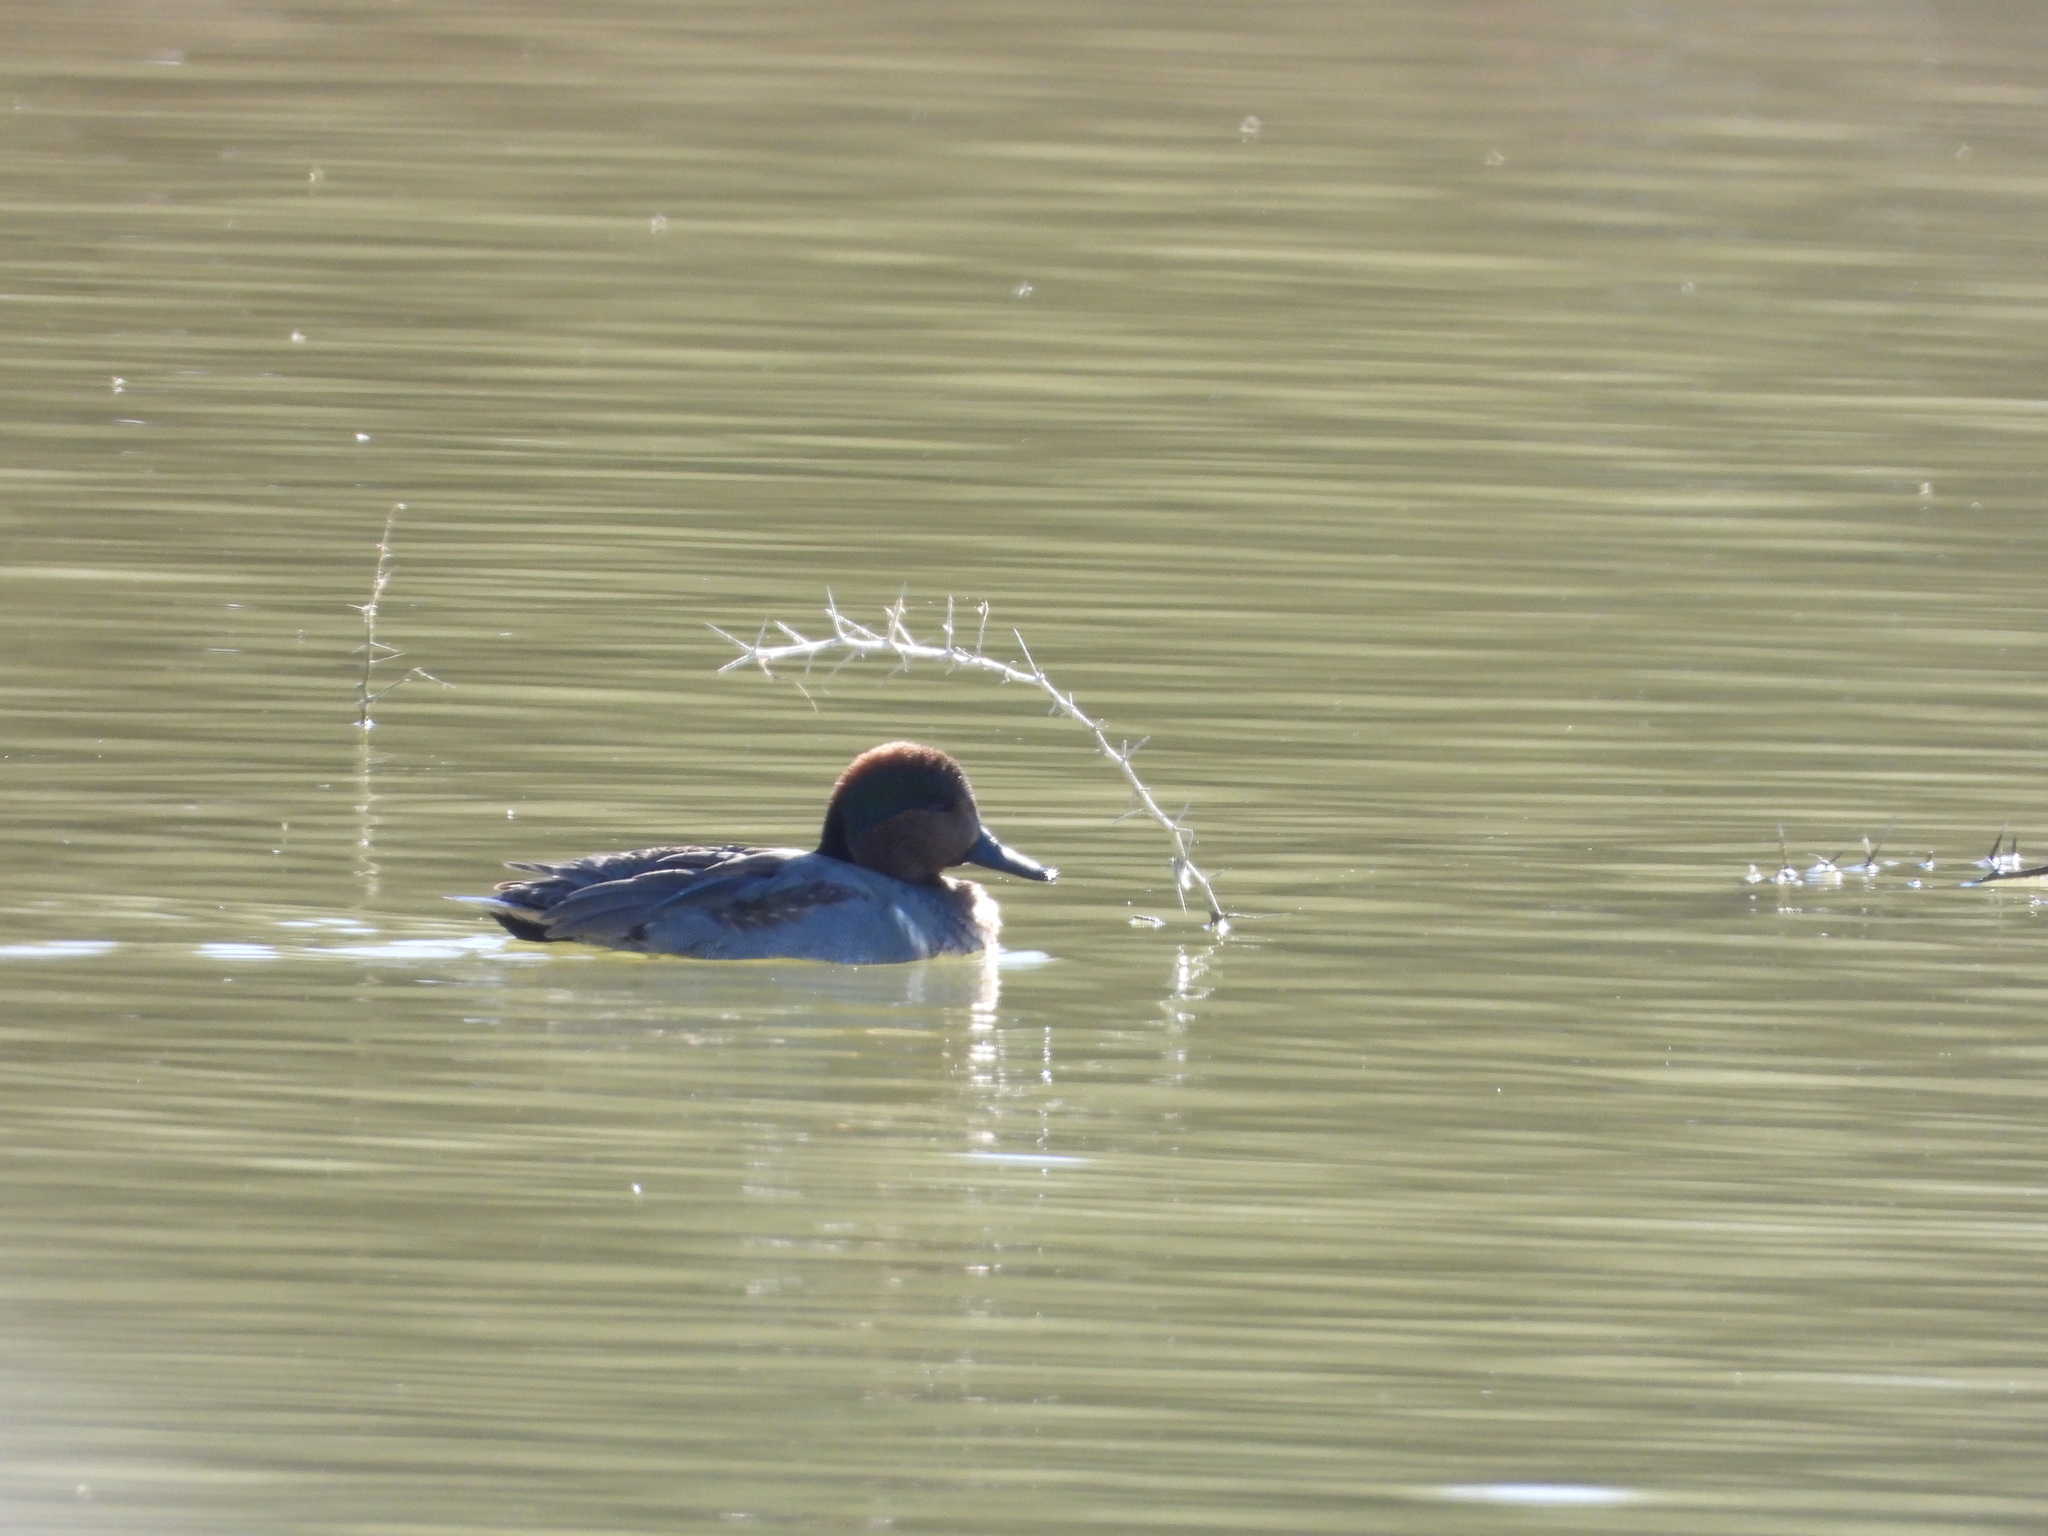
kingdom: Animalia
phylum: Chordata
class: Aves
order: Anseriformes
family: Anatidae
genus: Anas
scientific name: Anas crecca
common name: Eurasian teal
